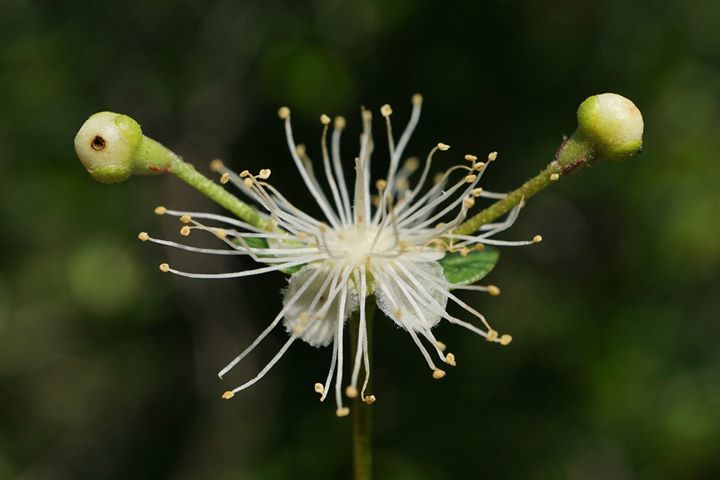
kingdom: Plantae
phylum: Tracheophyta
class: Magnoliopsida
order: Myrtales
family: Myrtaceae
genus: Myrcianthes
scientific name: Myrcianthes fragrans
